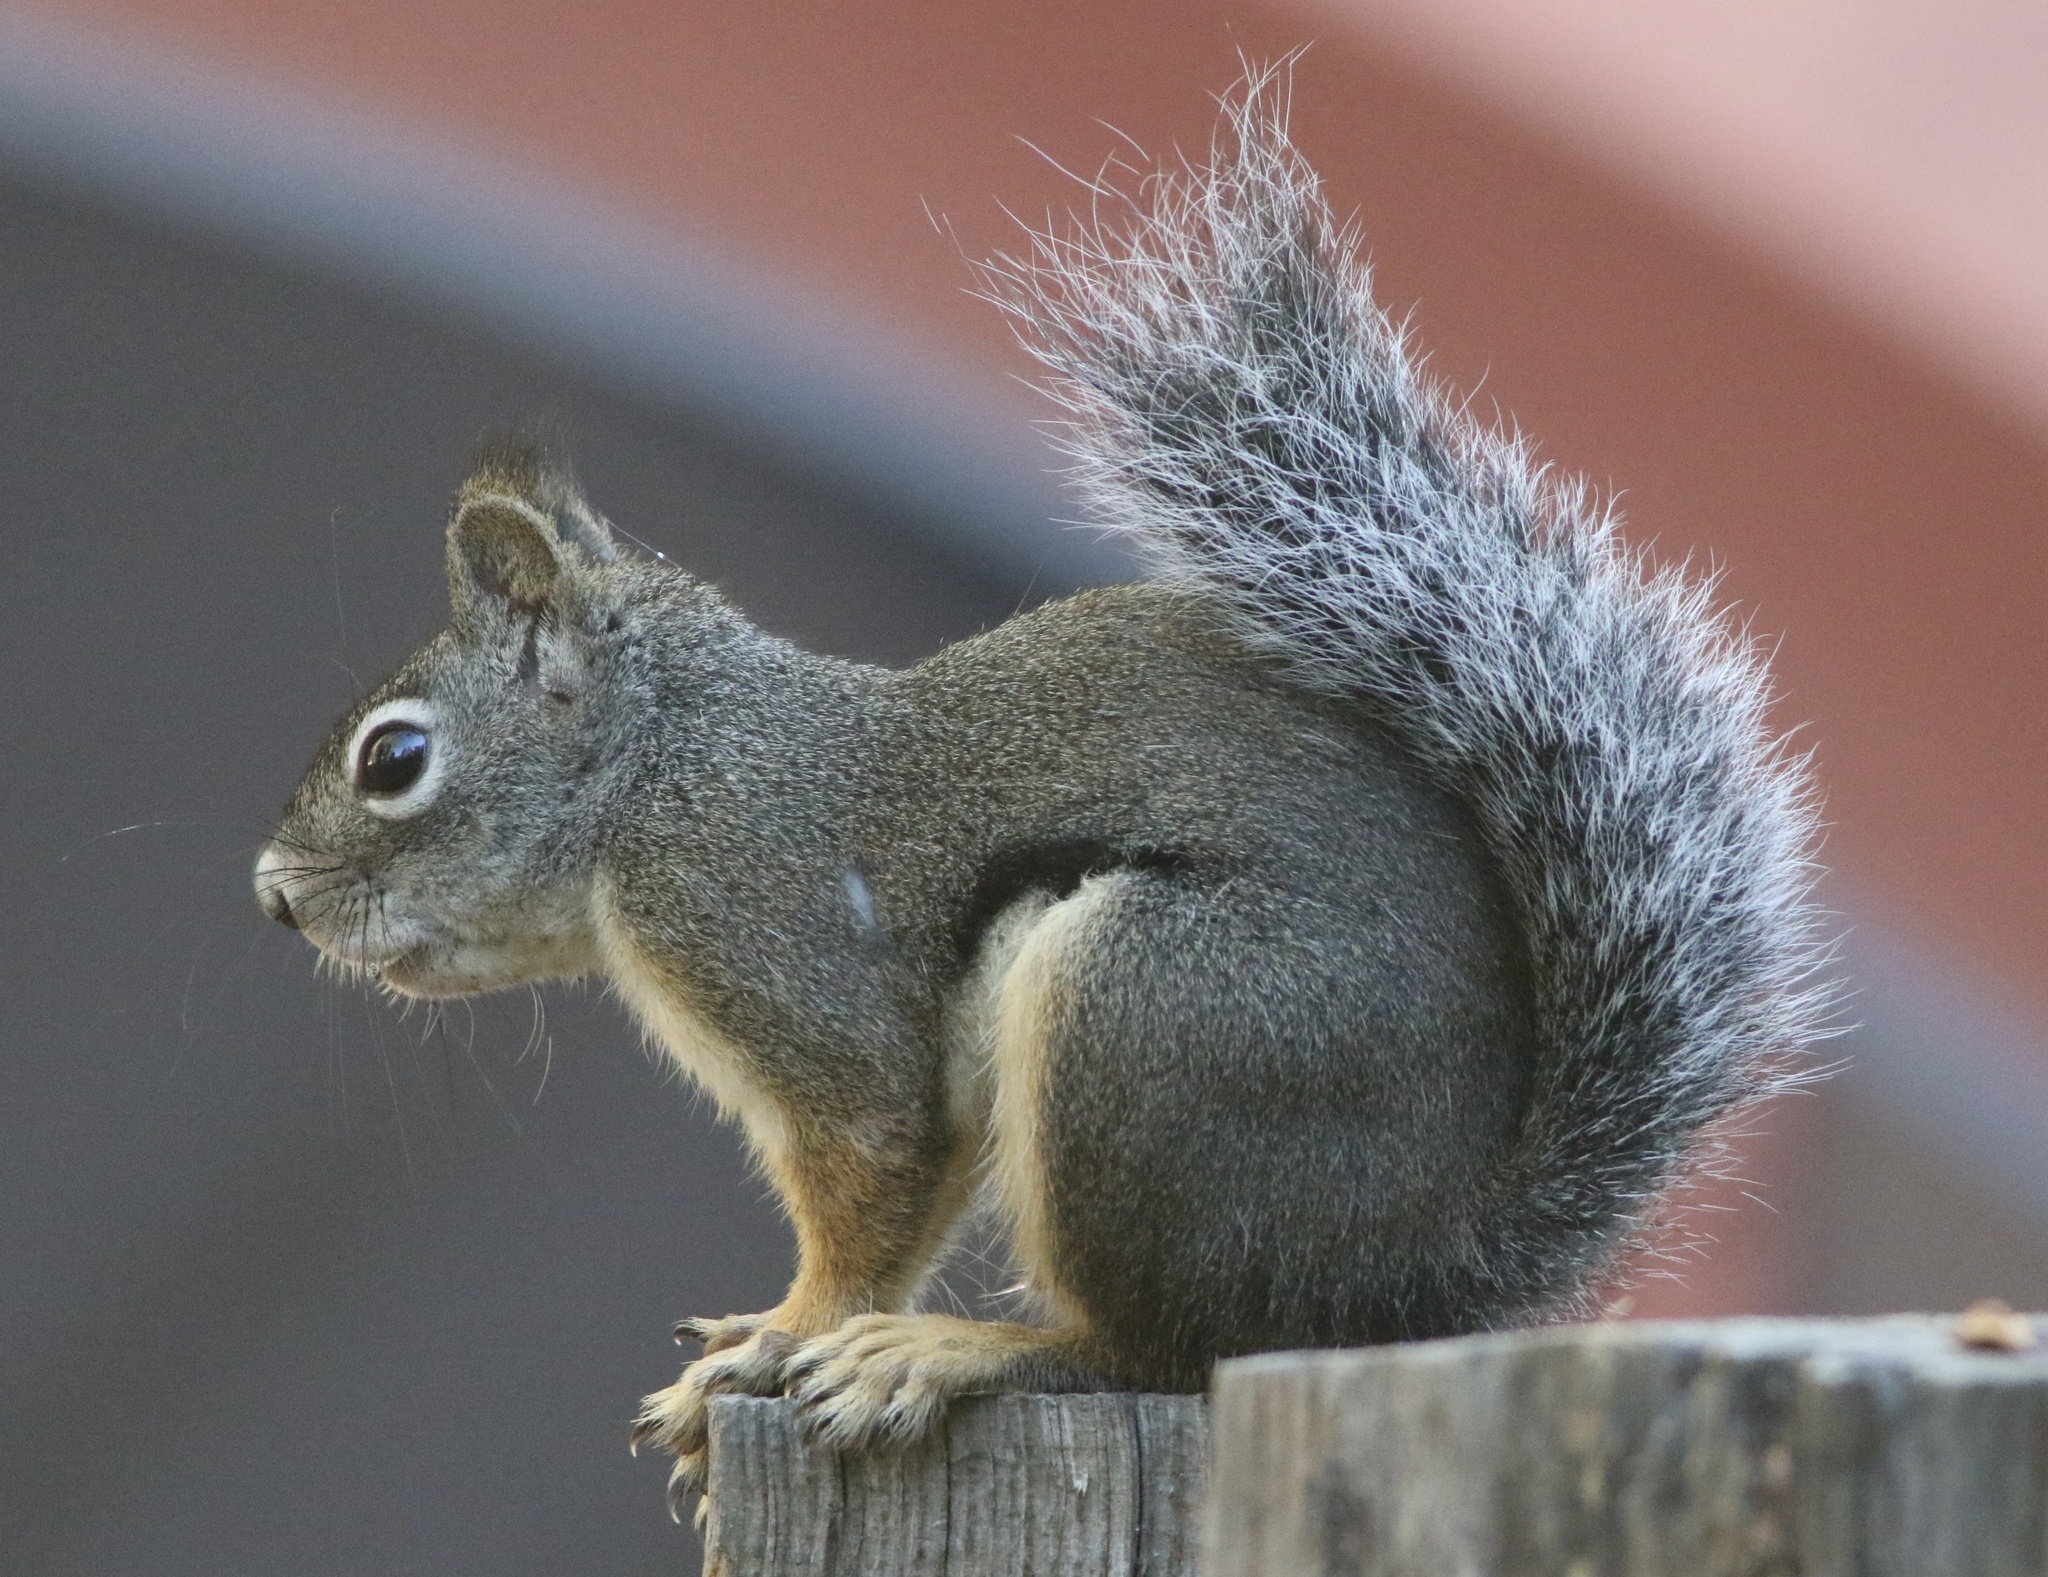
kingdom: Animalia
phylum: Chordata
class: Mammalia
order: Rodentia
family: Sciuridae
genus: Tamiasciurus
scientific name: Tamiasciurus douglasii
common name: Douglas's squirrel
